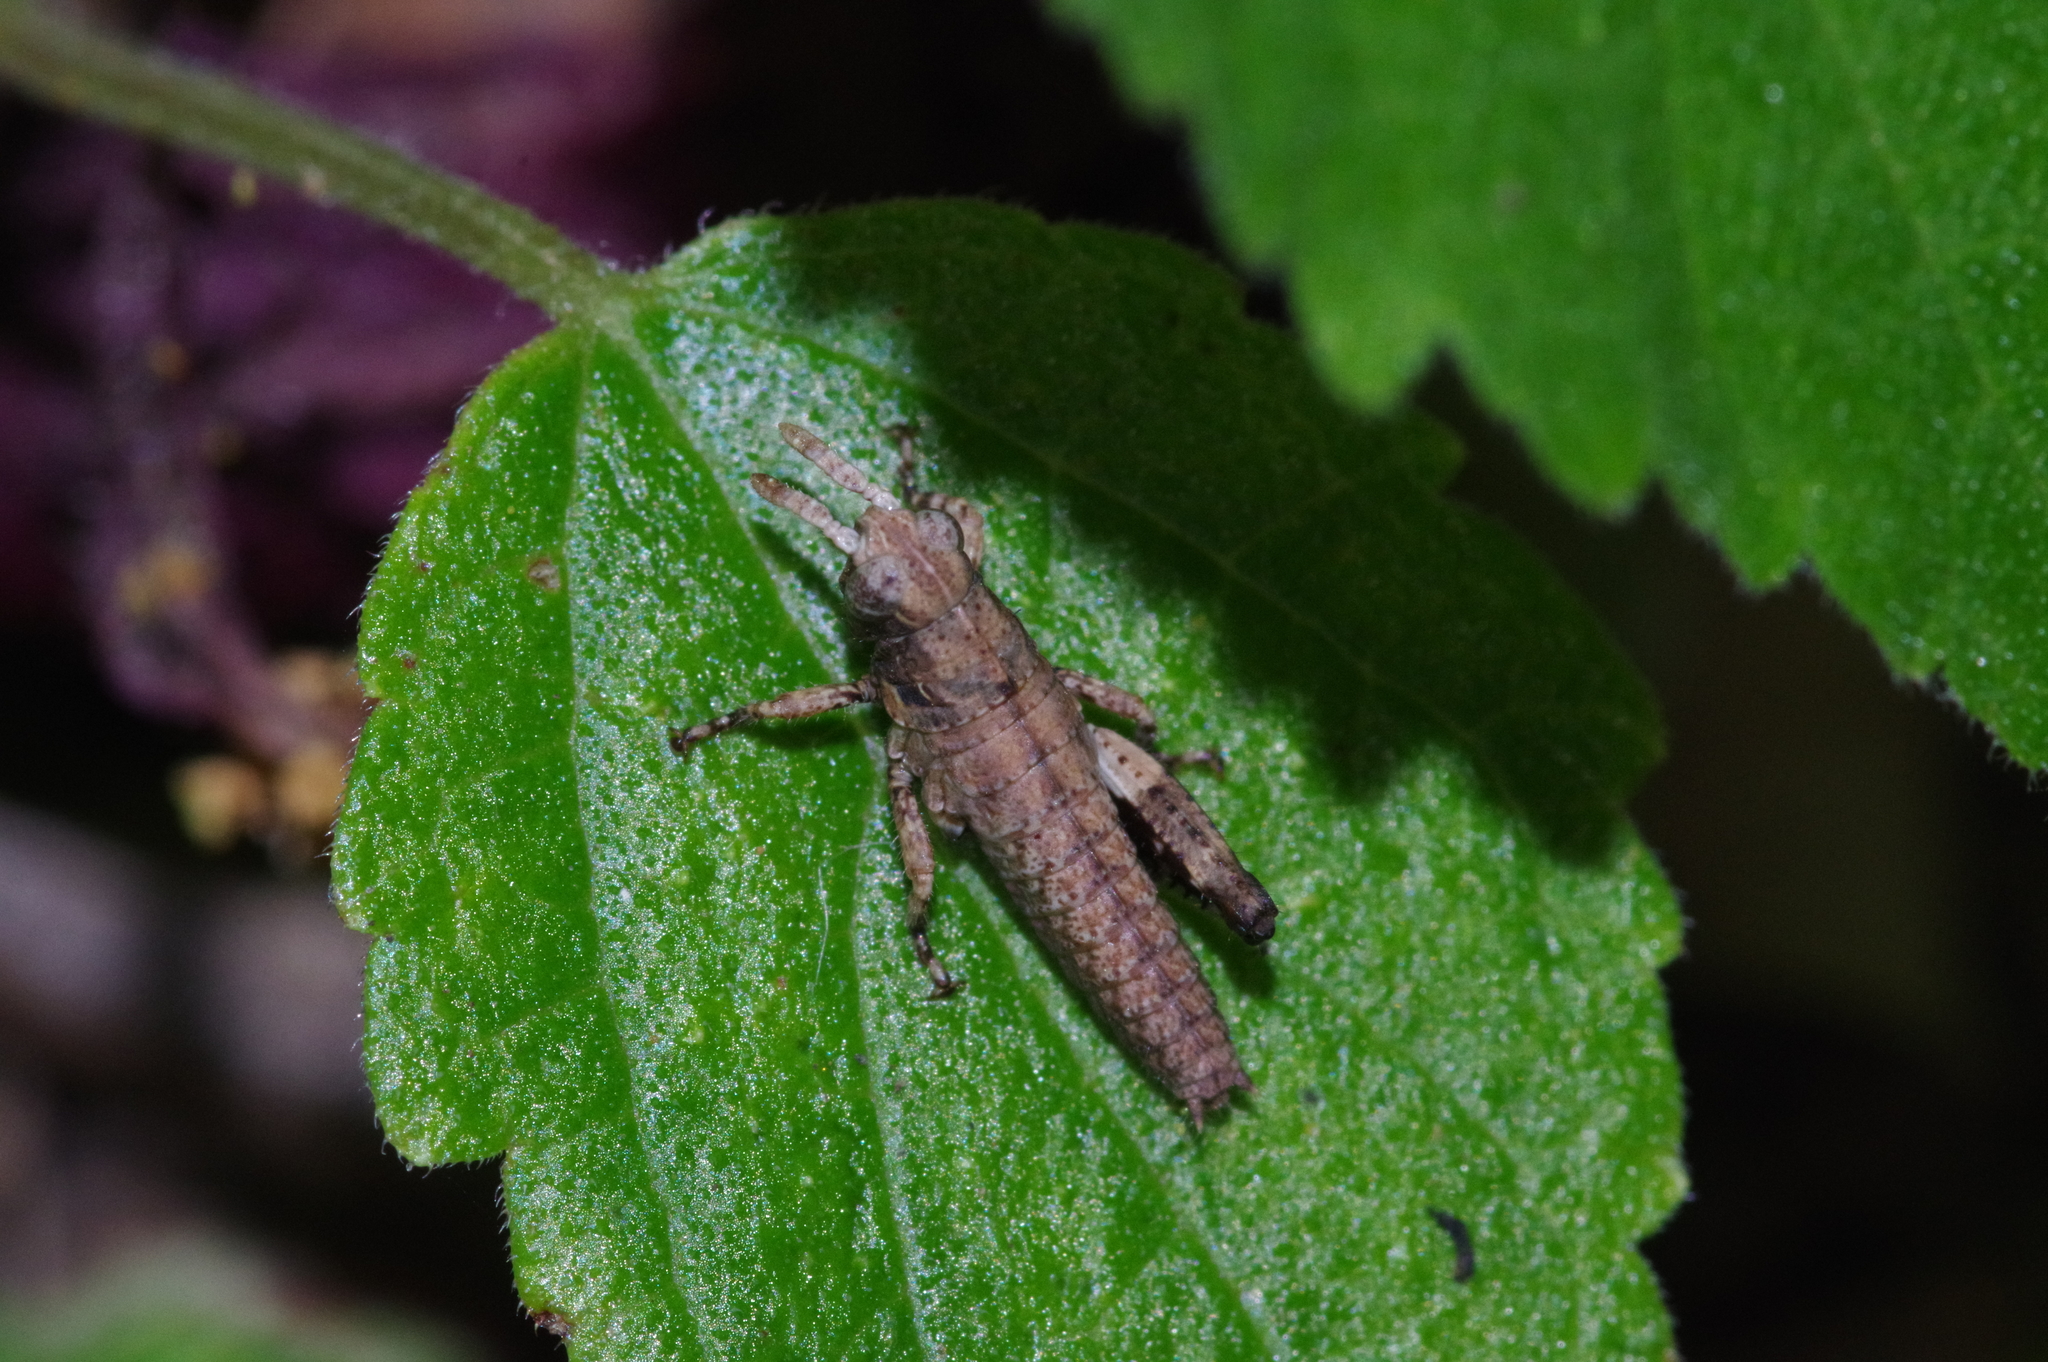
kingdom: Animalia
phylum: Arthropoda
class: Insecta
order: Orthoptera
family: Acrididae
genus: Traulia
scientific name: Traulia ornata
